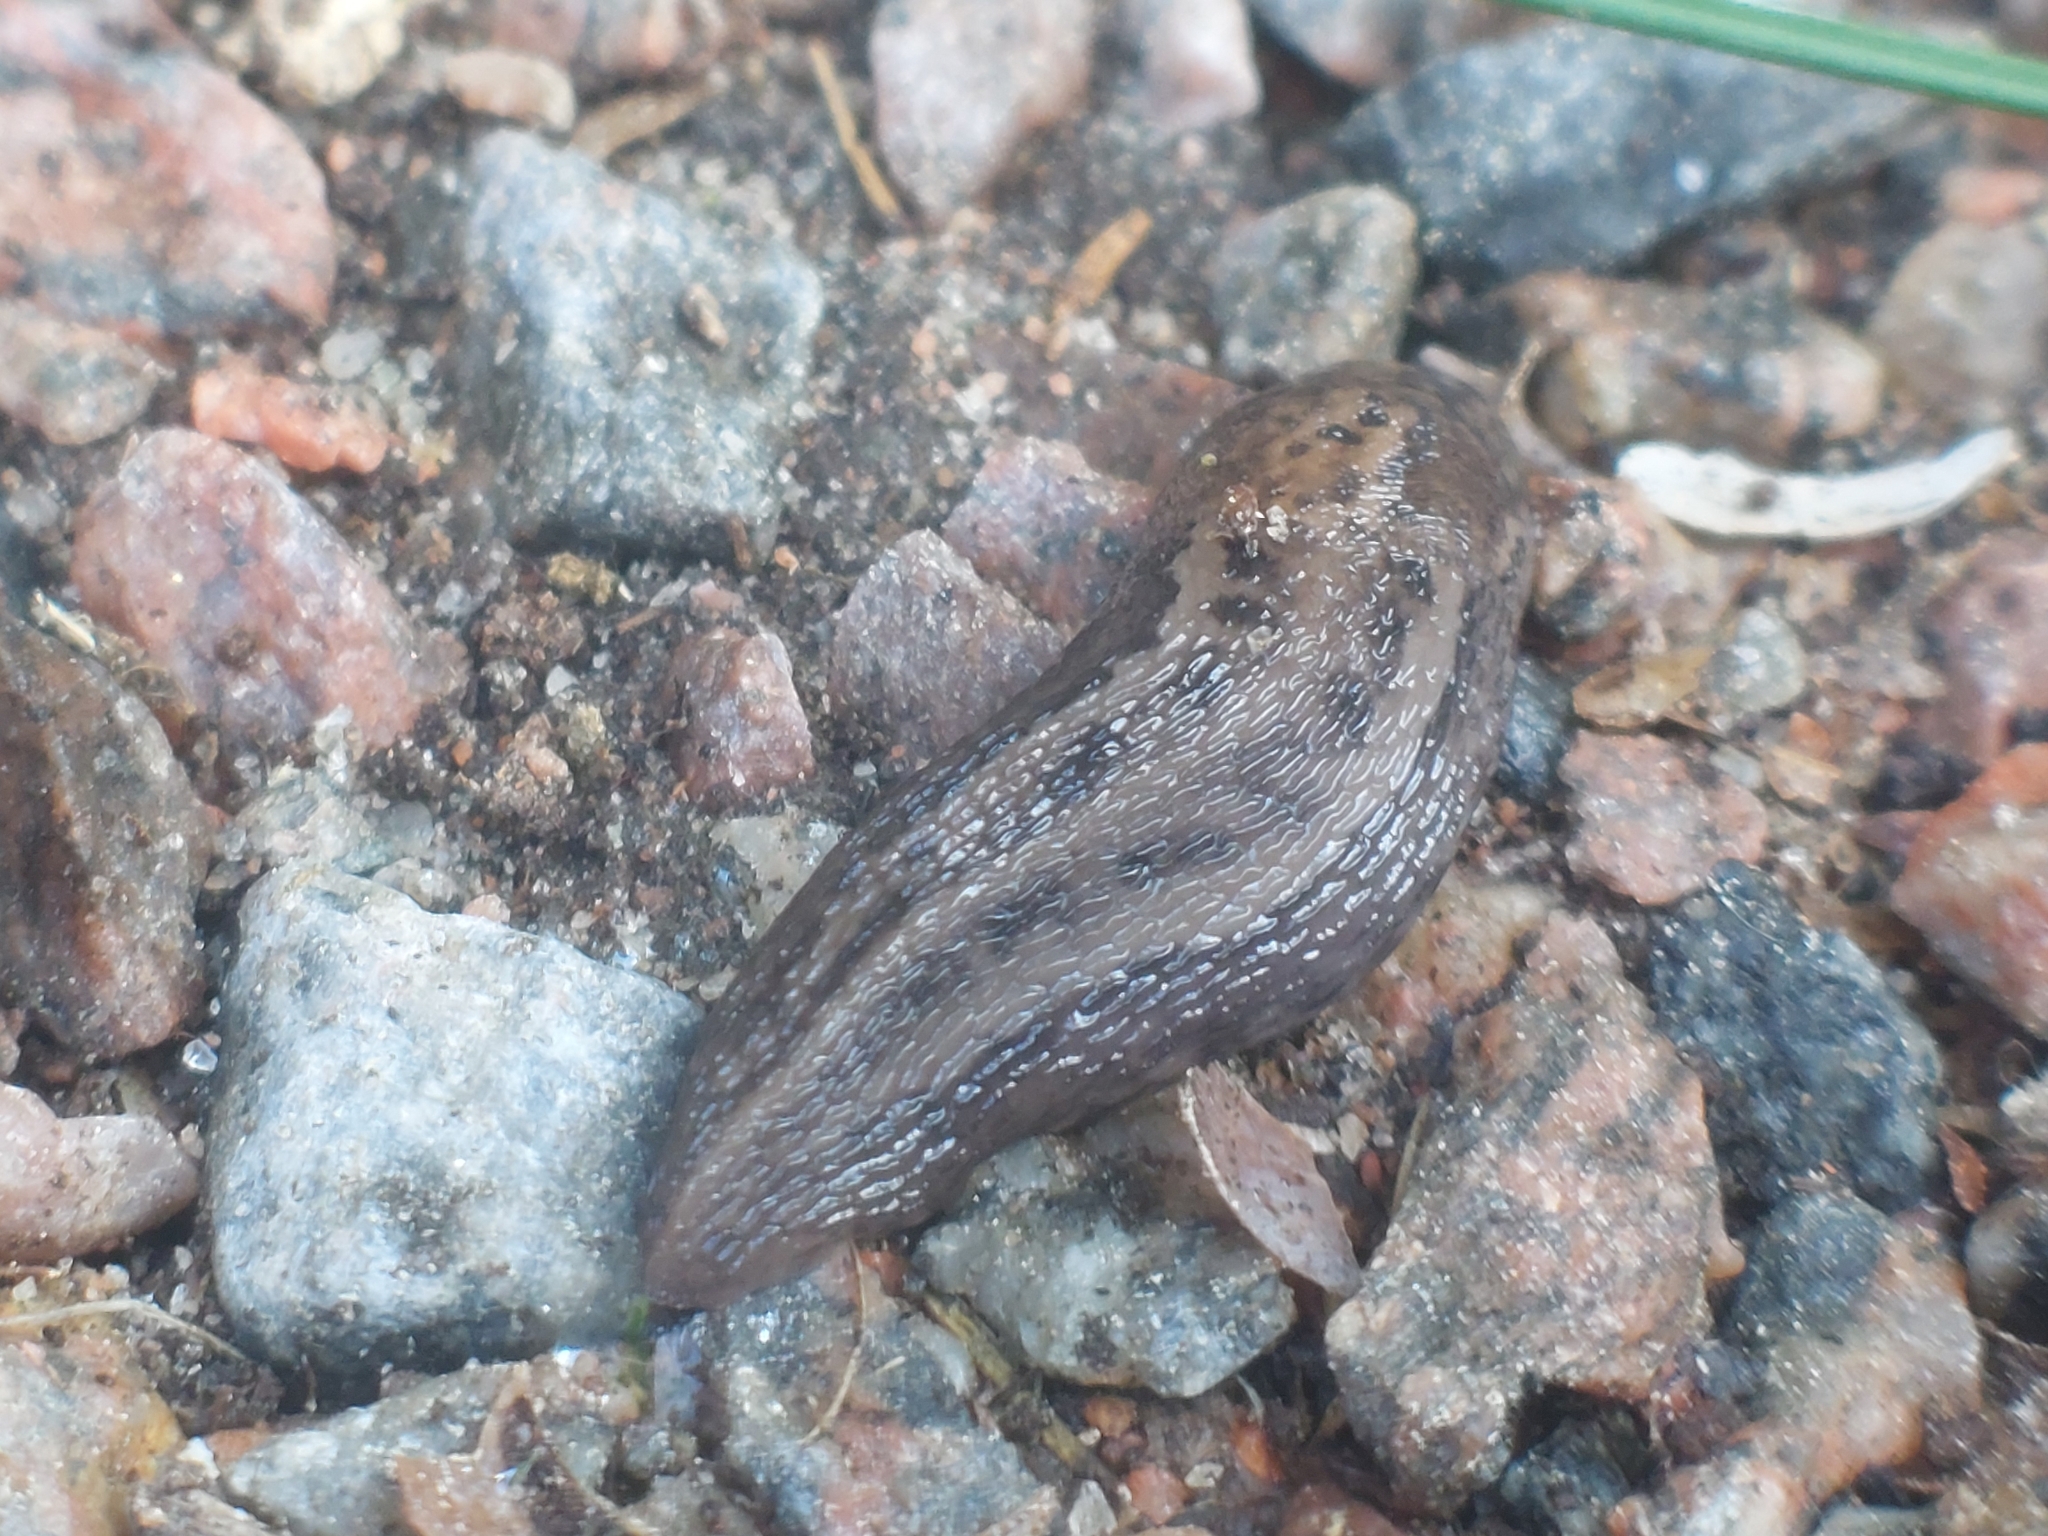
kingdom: Animalia
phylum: Mollusca
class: Gastropoda
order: Stylommatophora
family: Limacidae
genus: Limax
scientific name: Limax maximus
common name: Great grey slug
